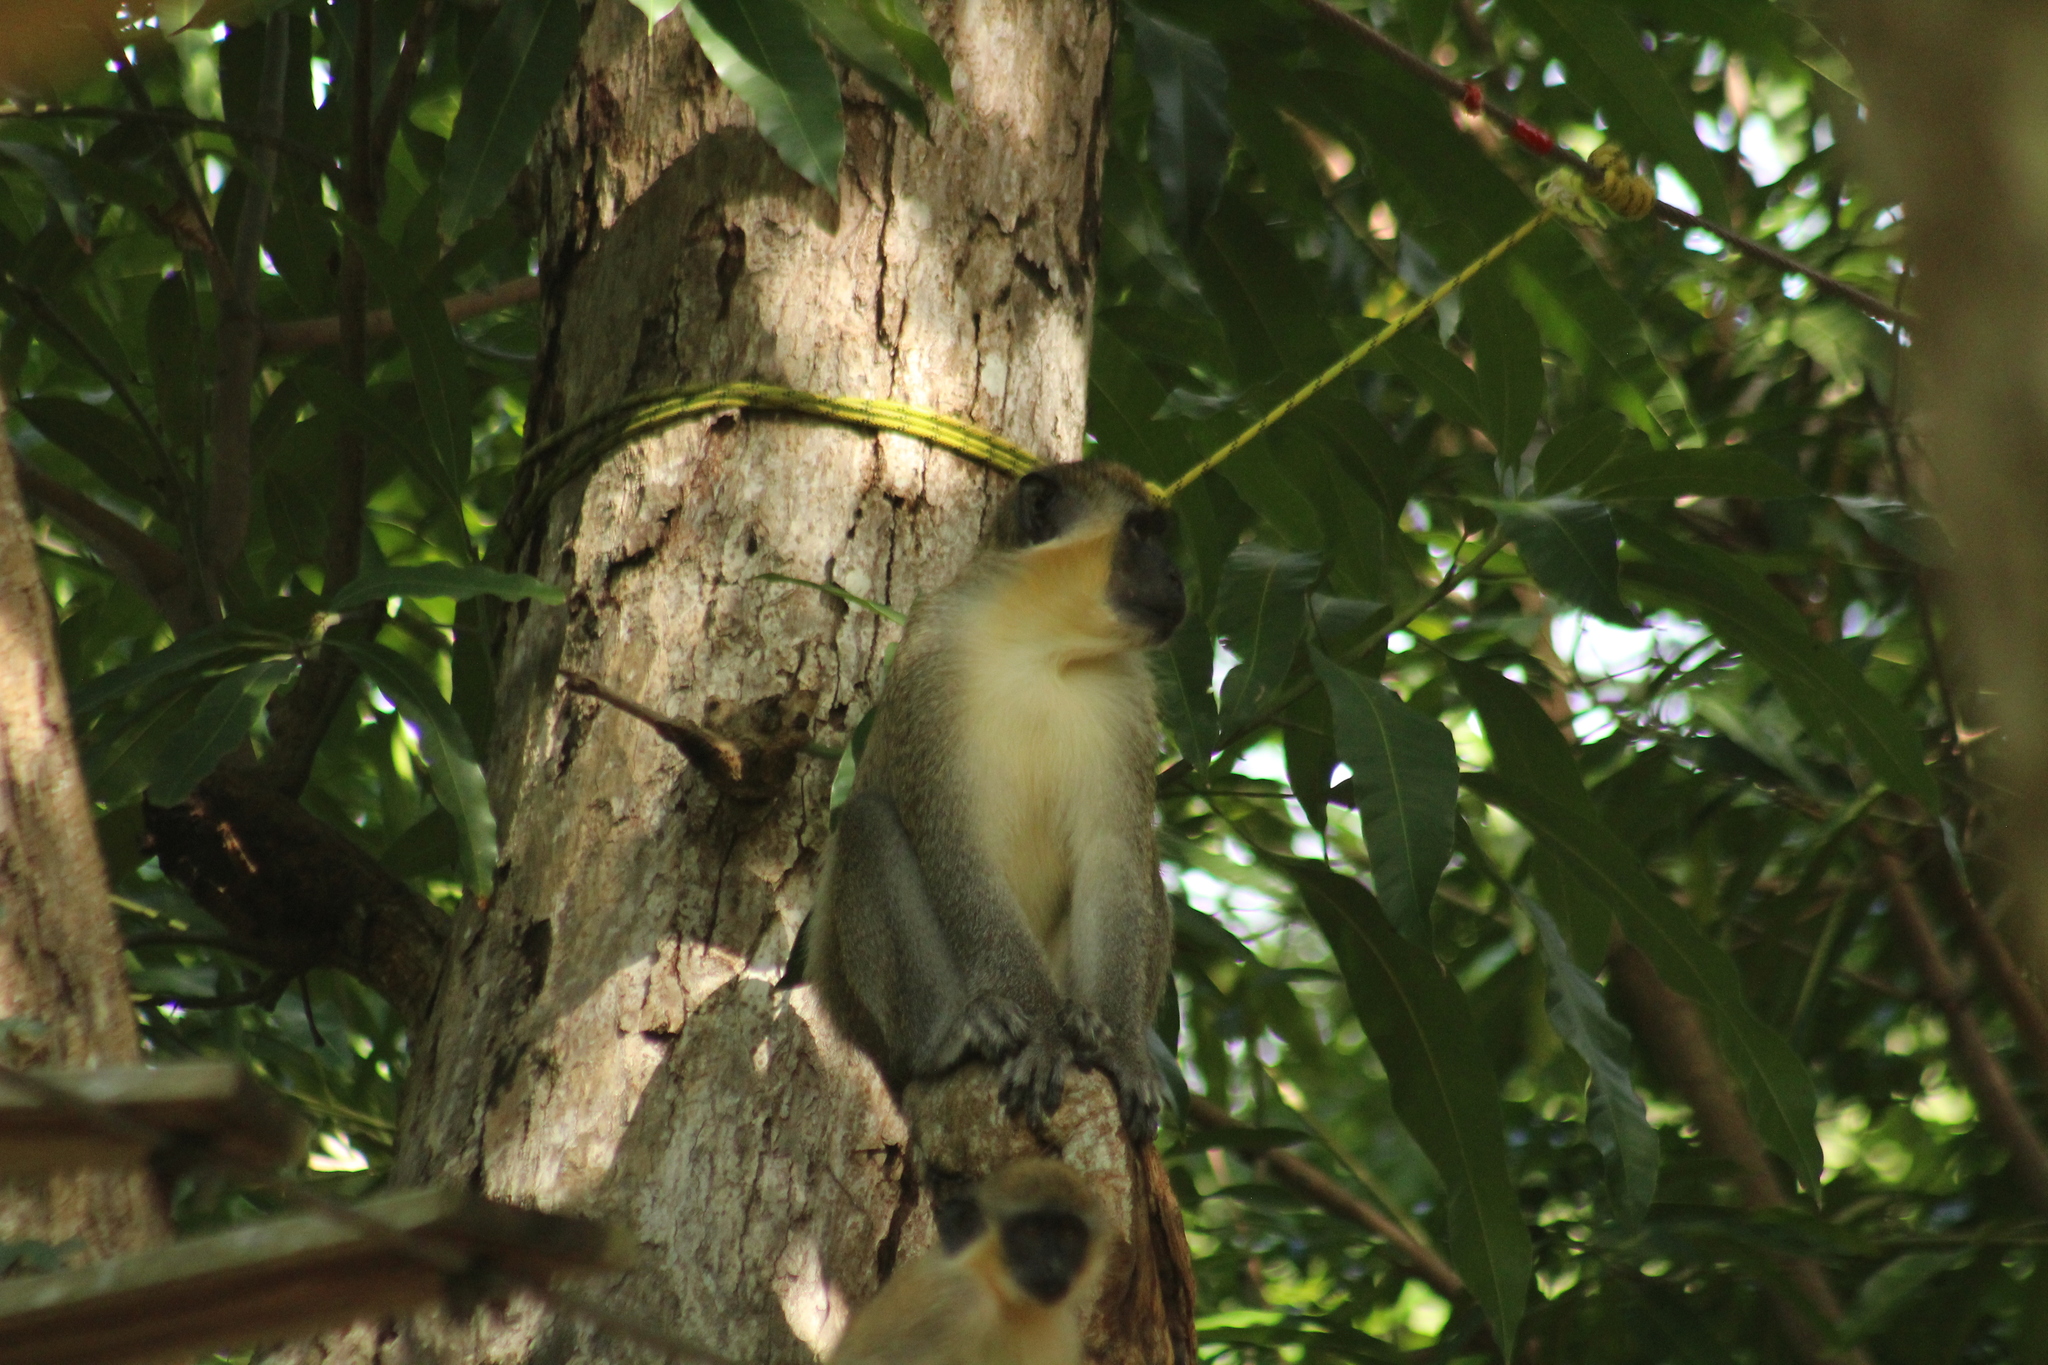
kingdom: Animalia
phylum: Chordata
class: Mammalia
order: Primates
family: Cercopithecidae
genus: Chlorocebus
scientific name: Chlorocebus sabaeus
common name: Green monkey
